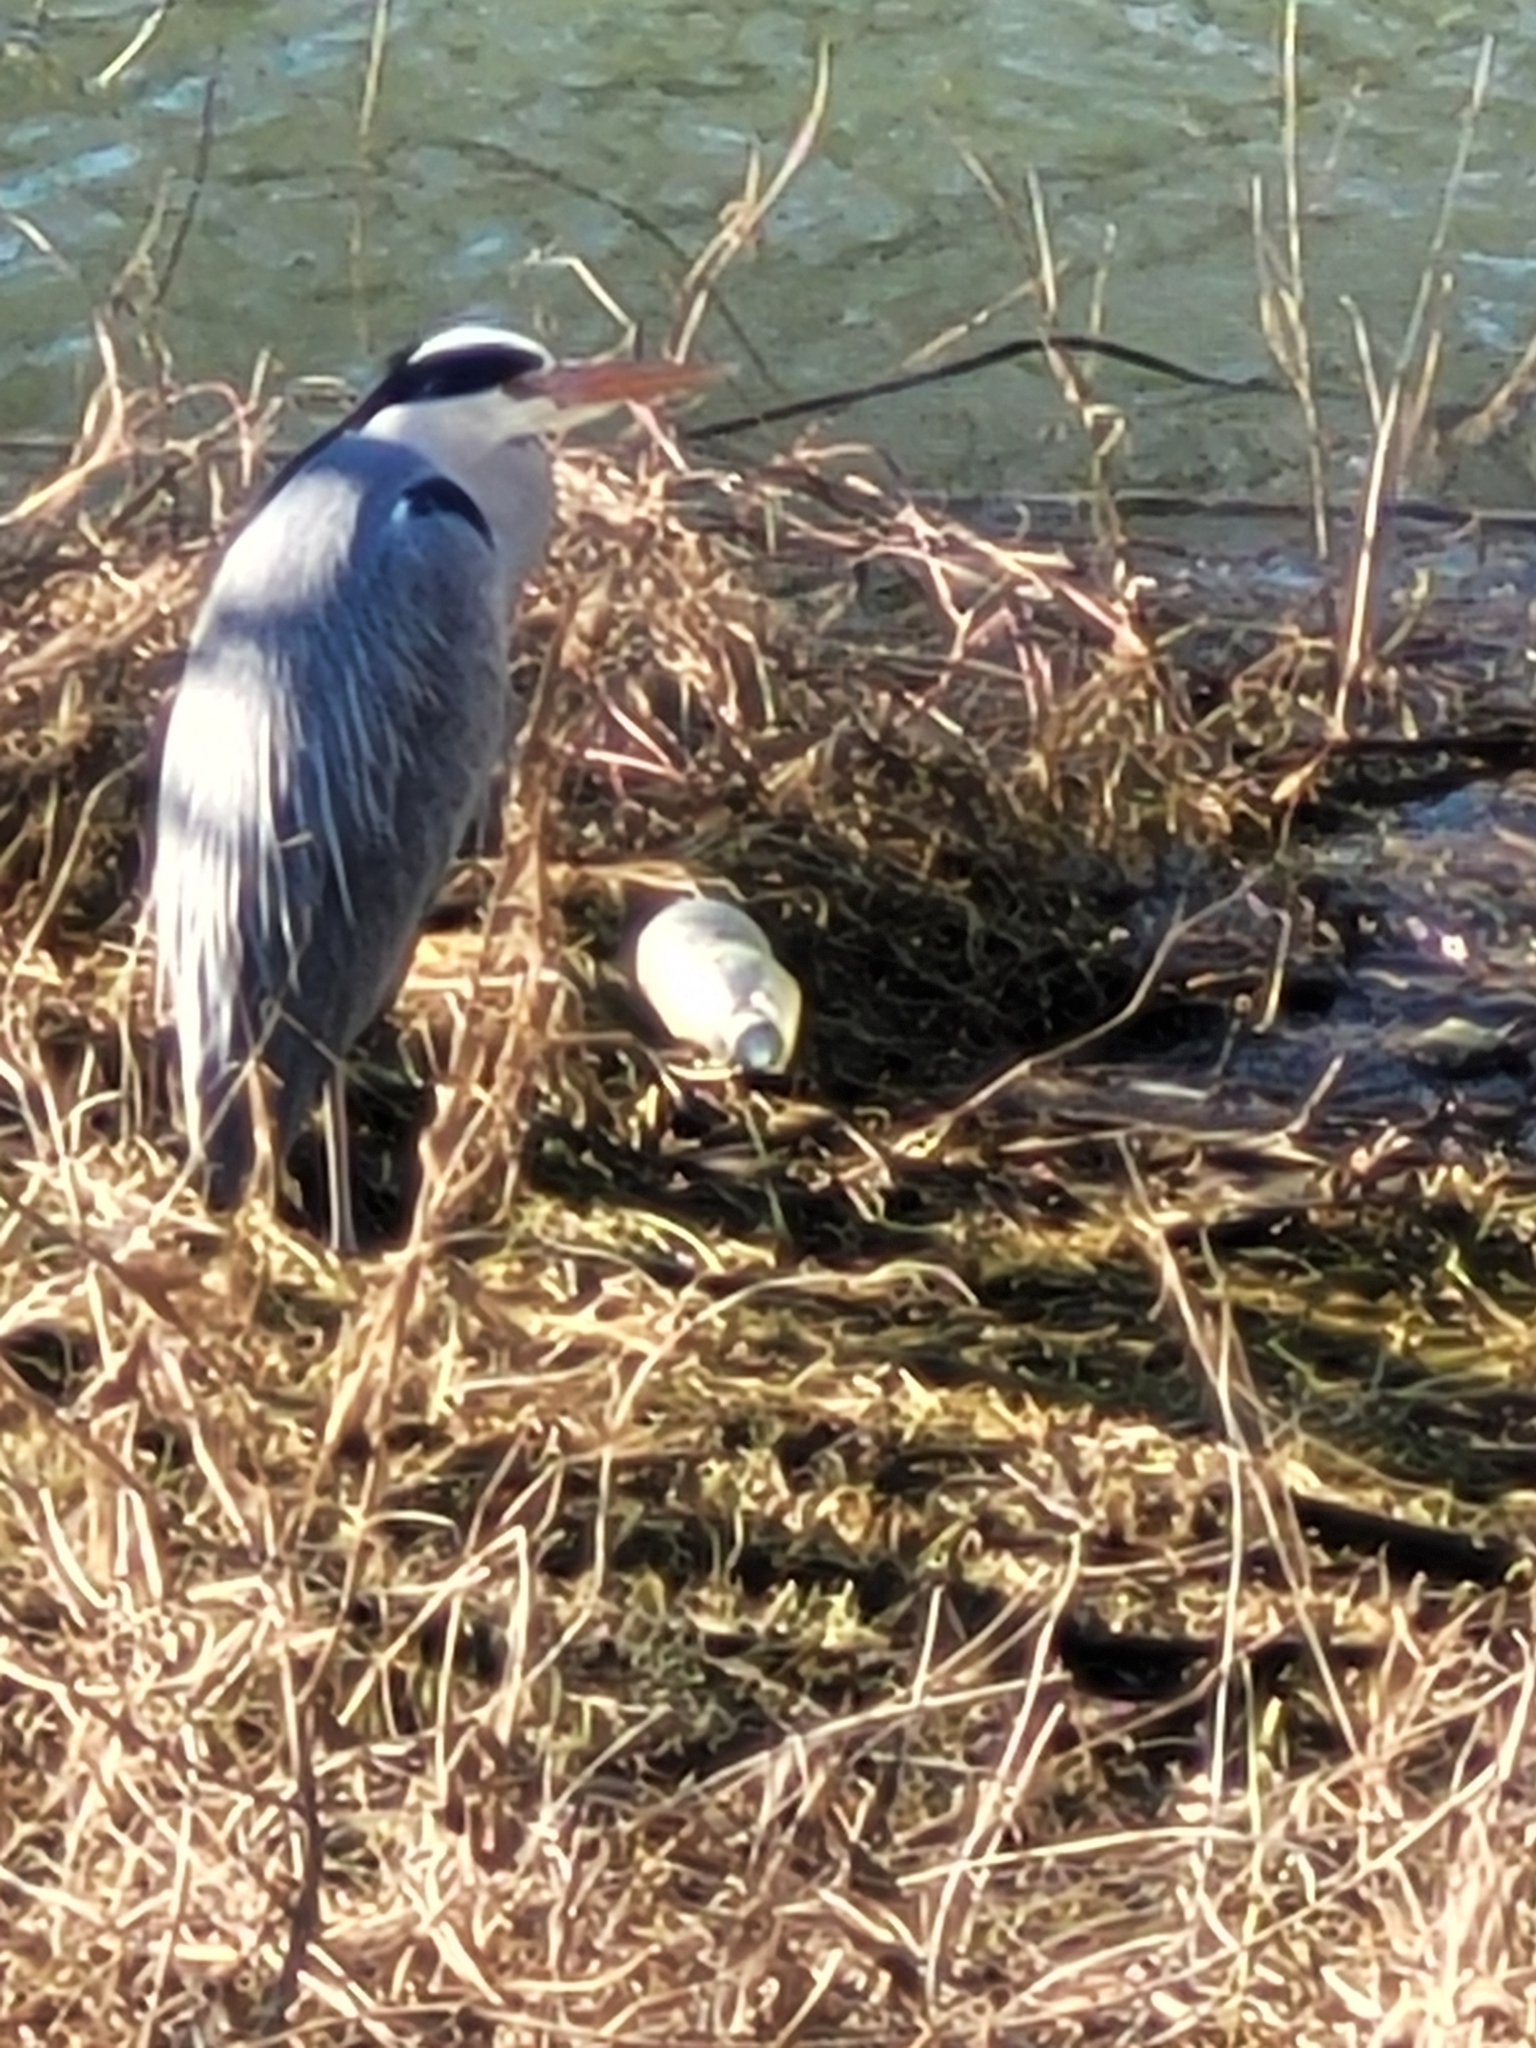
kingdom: Animalia
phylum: Chordata
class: Aves
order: Pelecaniformes
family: Ardeidae
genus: Ardea
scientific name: Ardea cinerea
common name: Grey heron
